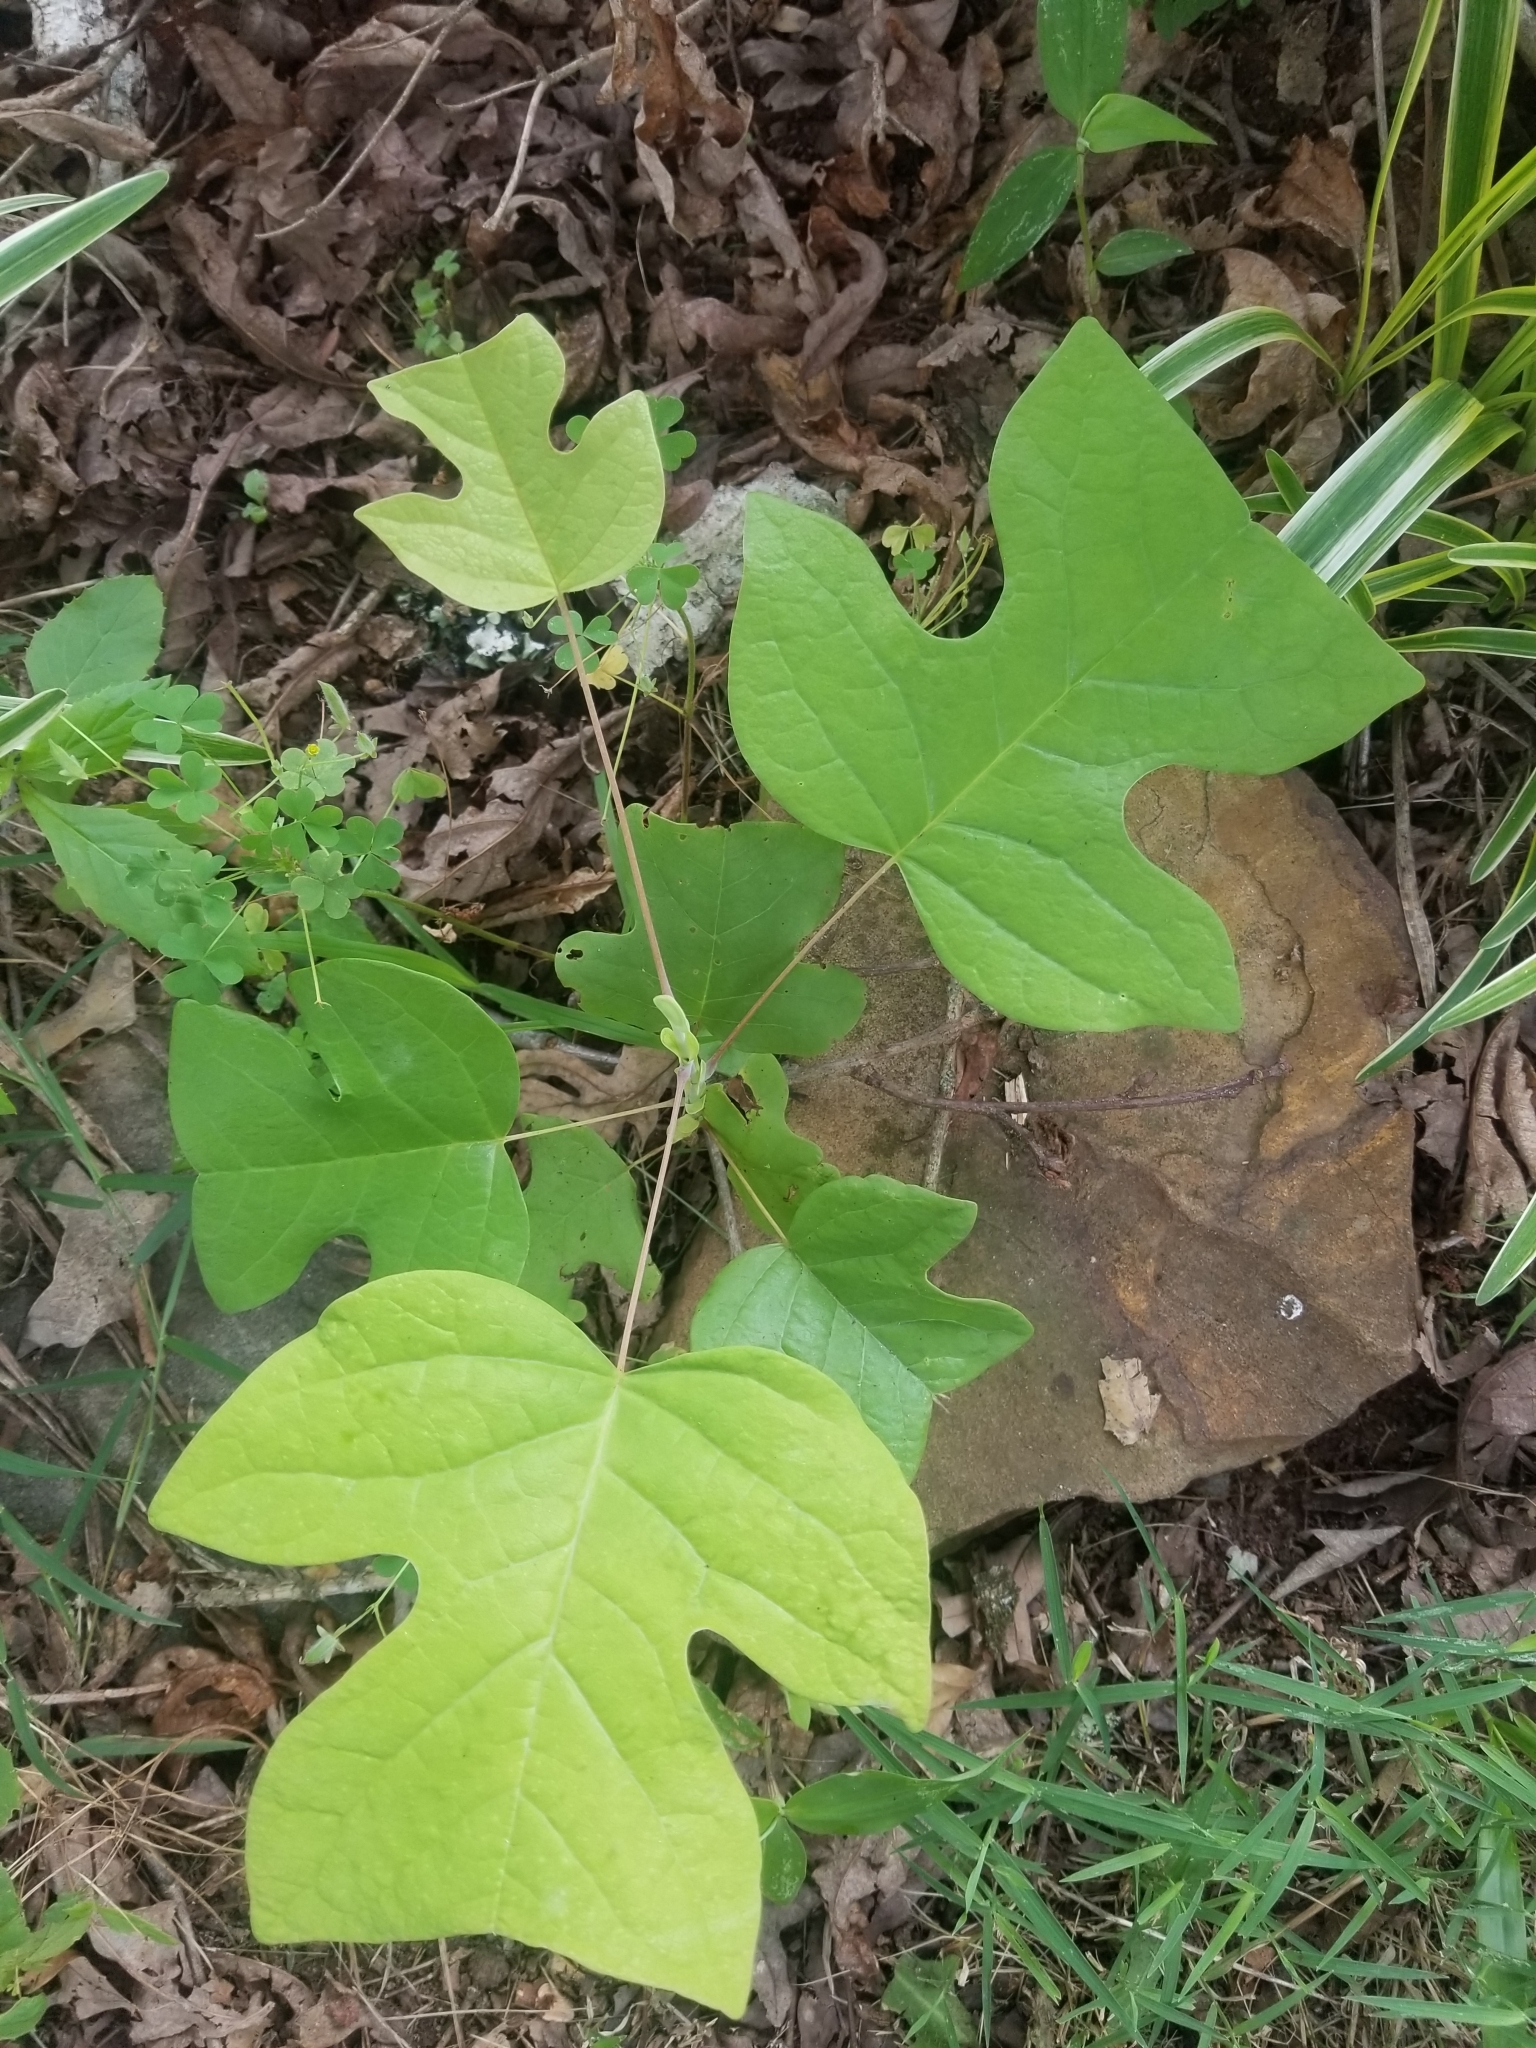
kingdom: Plantae
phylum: Tracheophyta
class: Magnoliopsida
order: Magnoliales
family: Magnoliaceae
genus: Liriodendron
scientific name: Liriodendron tulipifera
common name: Tulip tree
